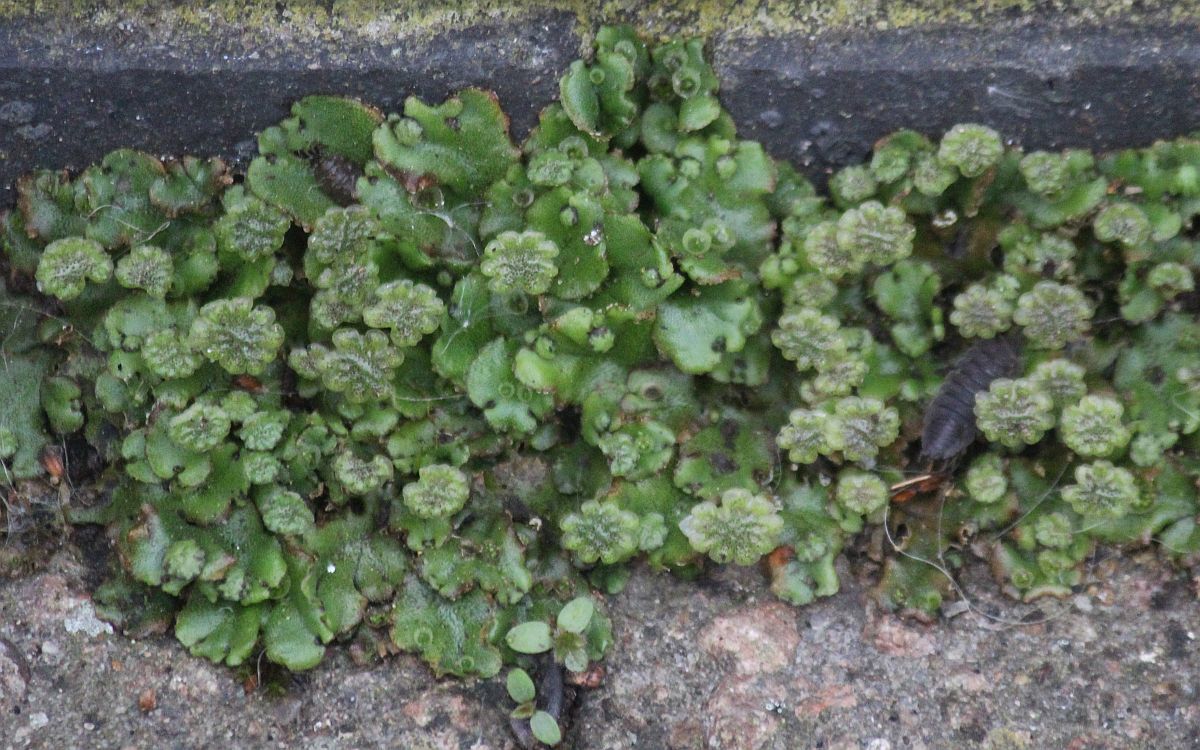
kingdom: Plantae
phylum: Marchantiophyta
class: Marchantiopsida
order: Marchantiales
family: Marchantiaceae
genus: Marchantia
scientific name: Marchantia polymorpha
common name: Common liverwort
